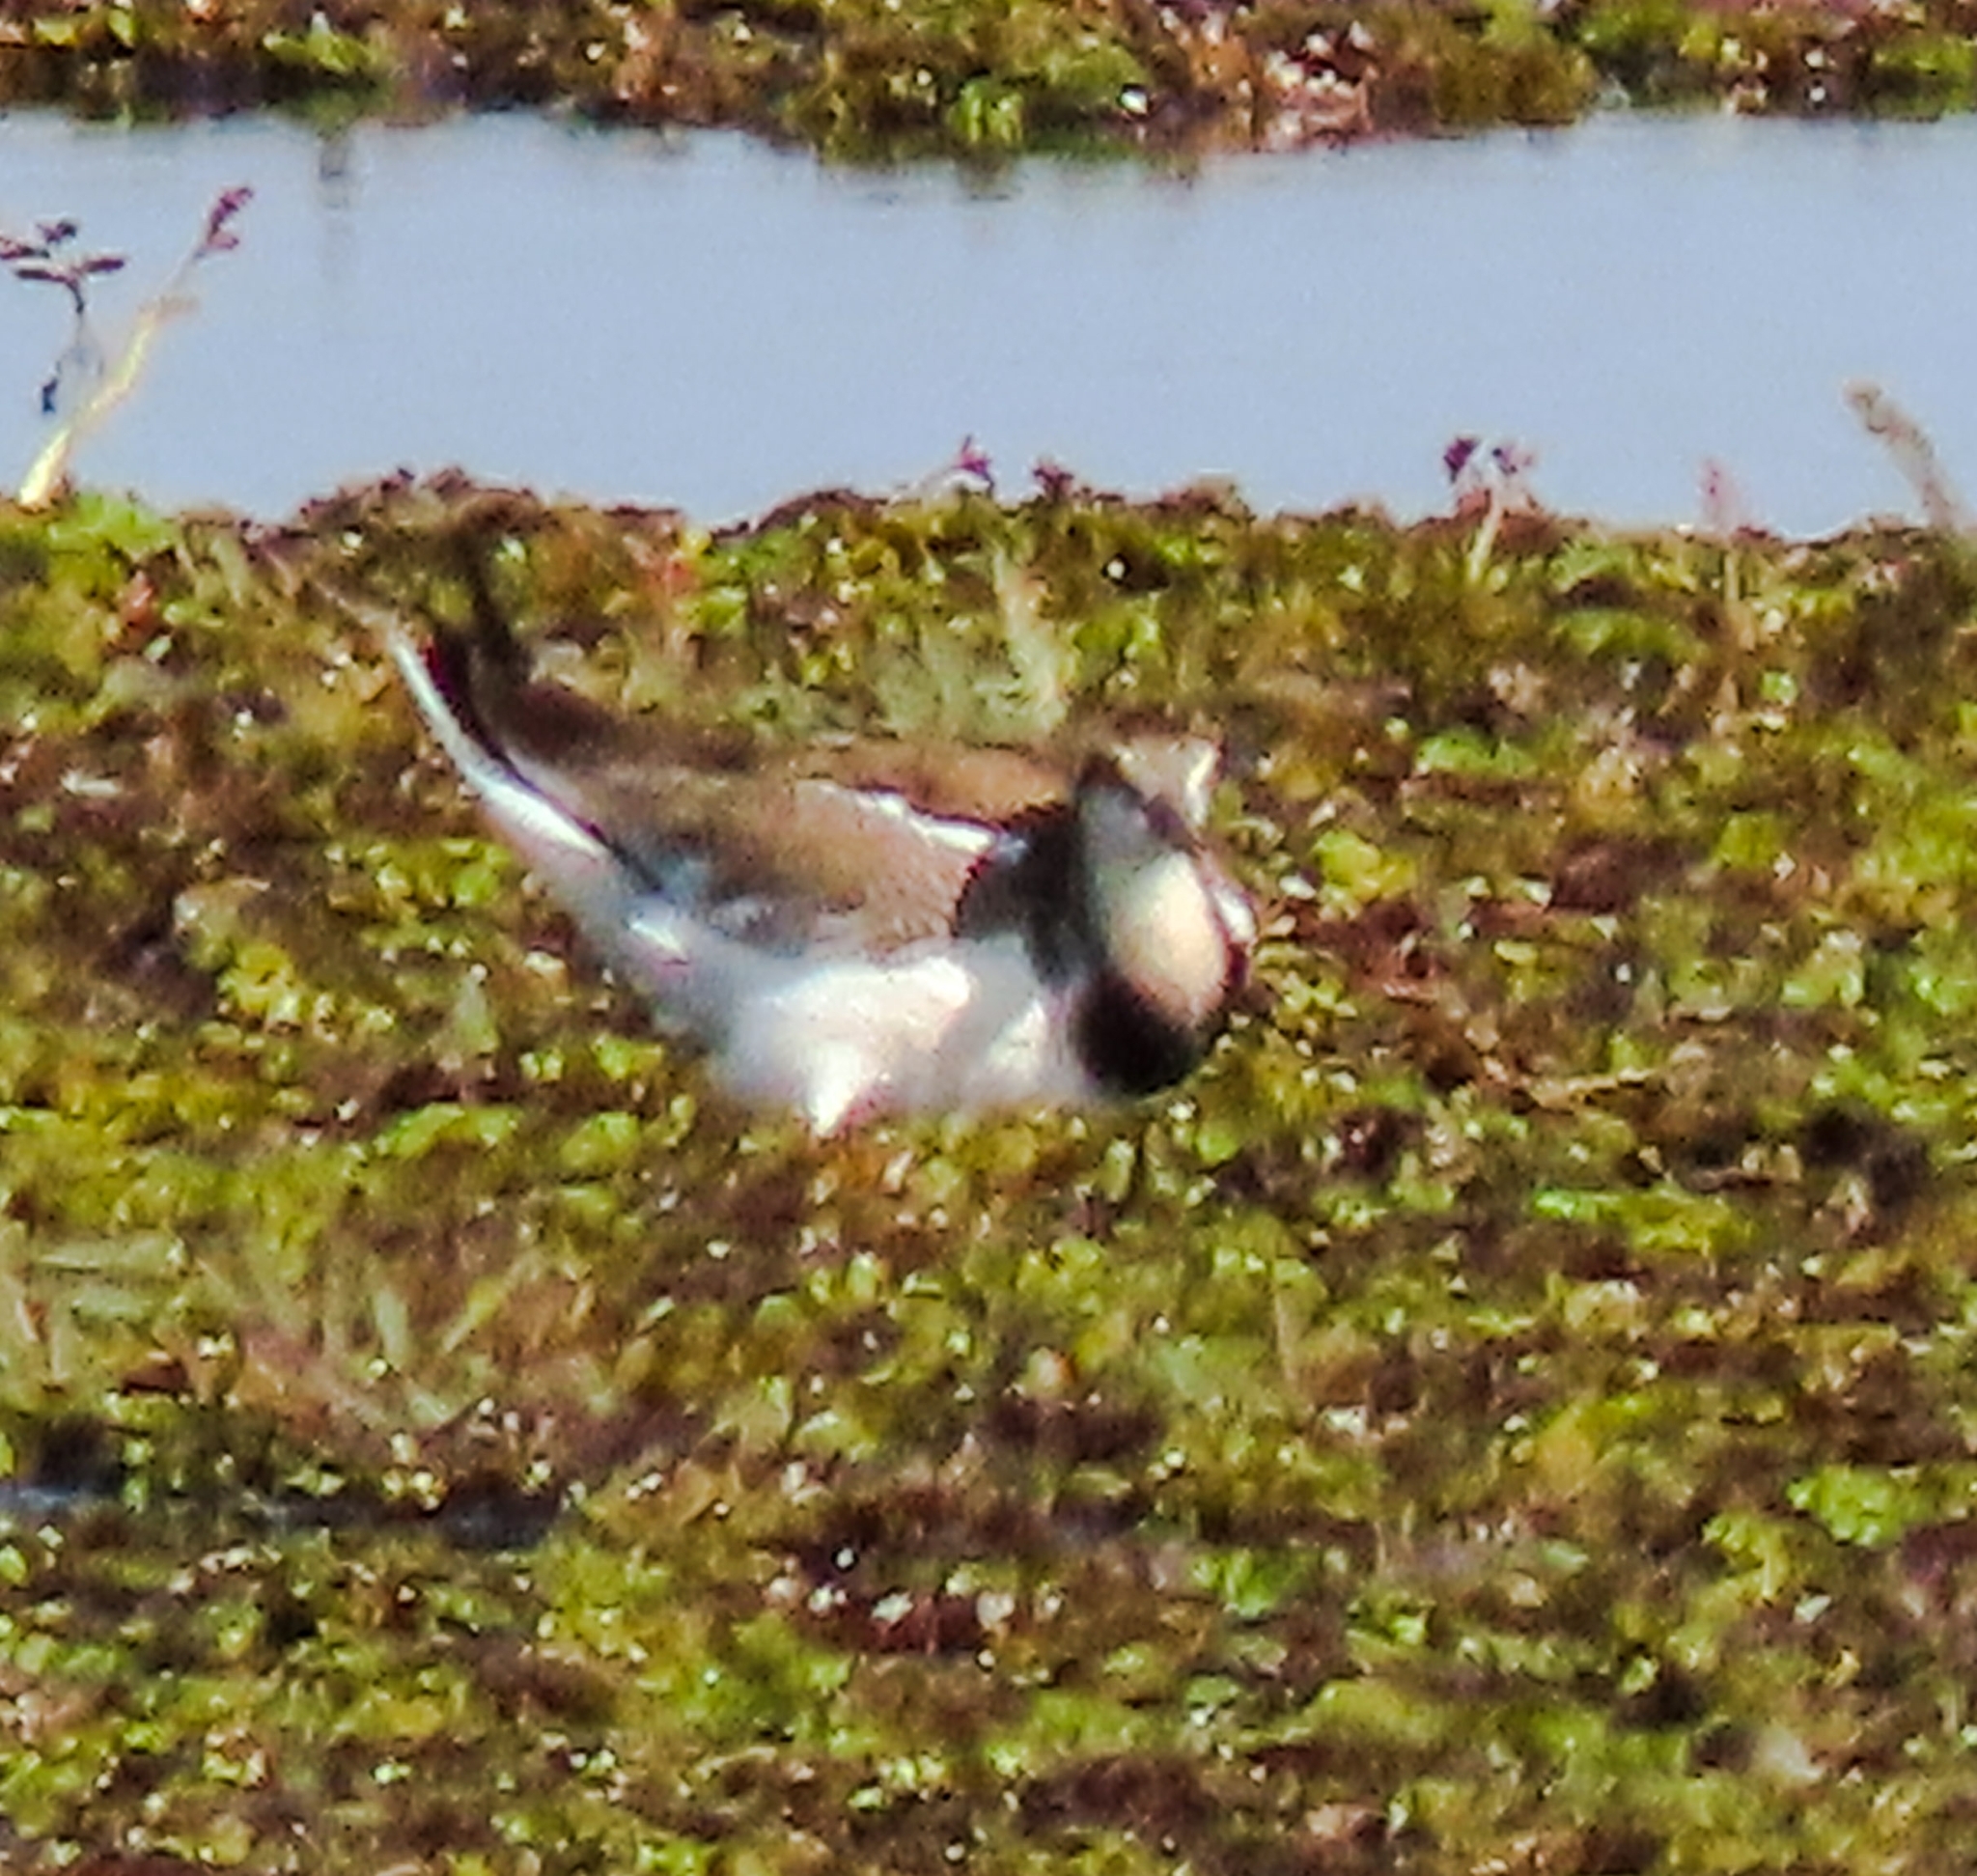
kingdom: Animalia
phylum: Chordata
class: Aves
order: Charadriiformes
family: Jacanidae
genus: Hydrophasianus
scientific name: Hydrophasianus chirurgus
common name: Pheasant-tailed jacana
